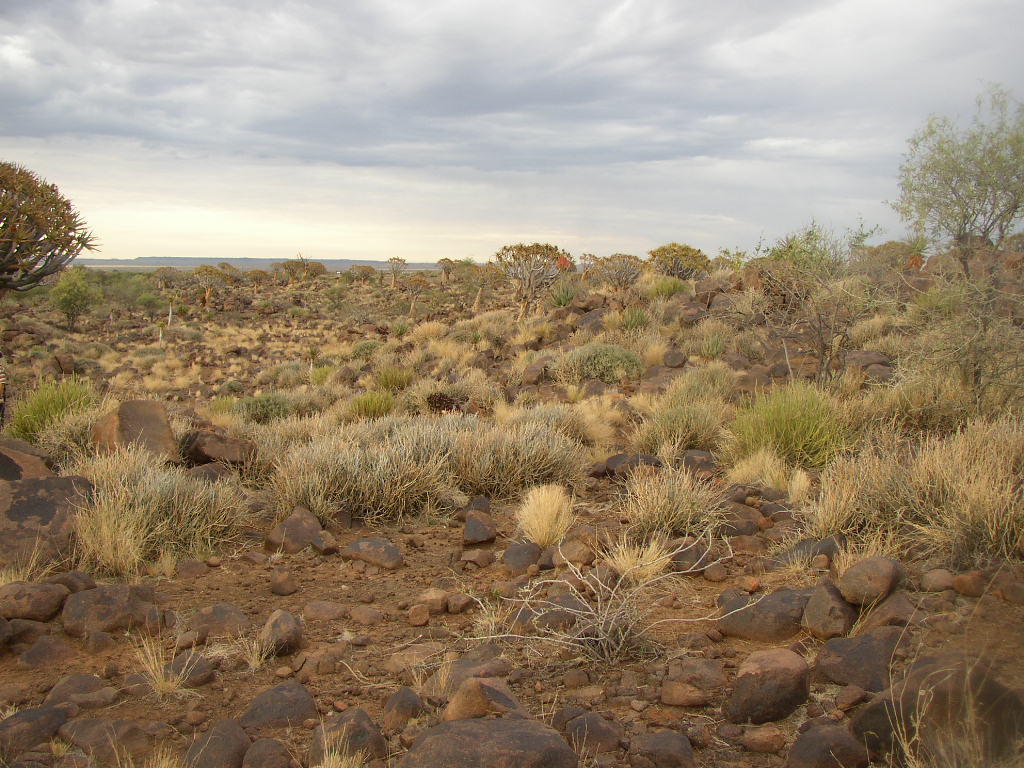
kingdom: Plantae
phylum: Tracheophyta
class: Liliopsida
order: Asparagales
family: Asphodelaceae
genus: Aloidendron
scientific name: Aloidendron dichotomum
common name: Quiver tree
